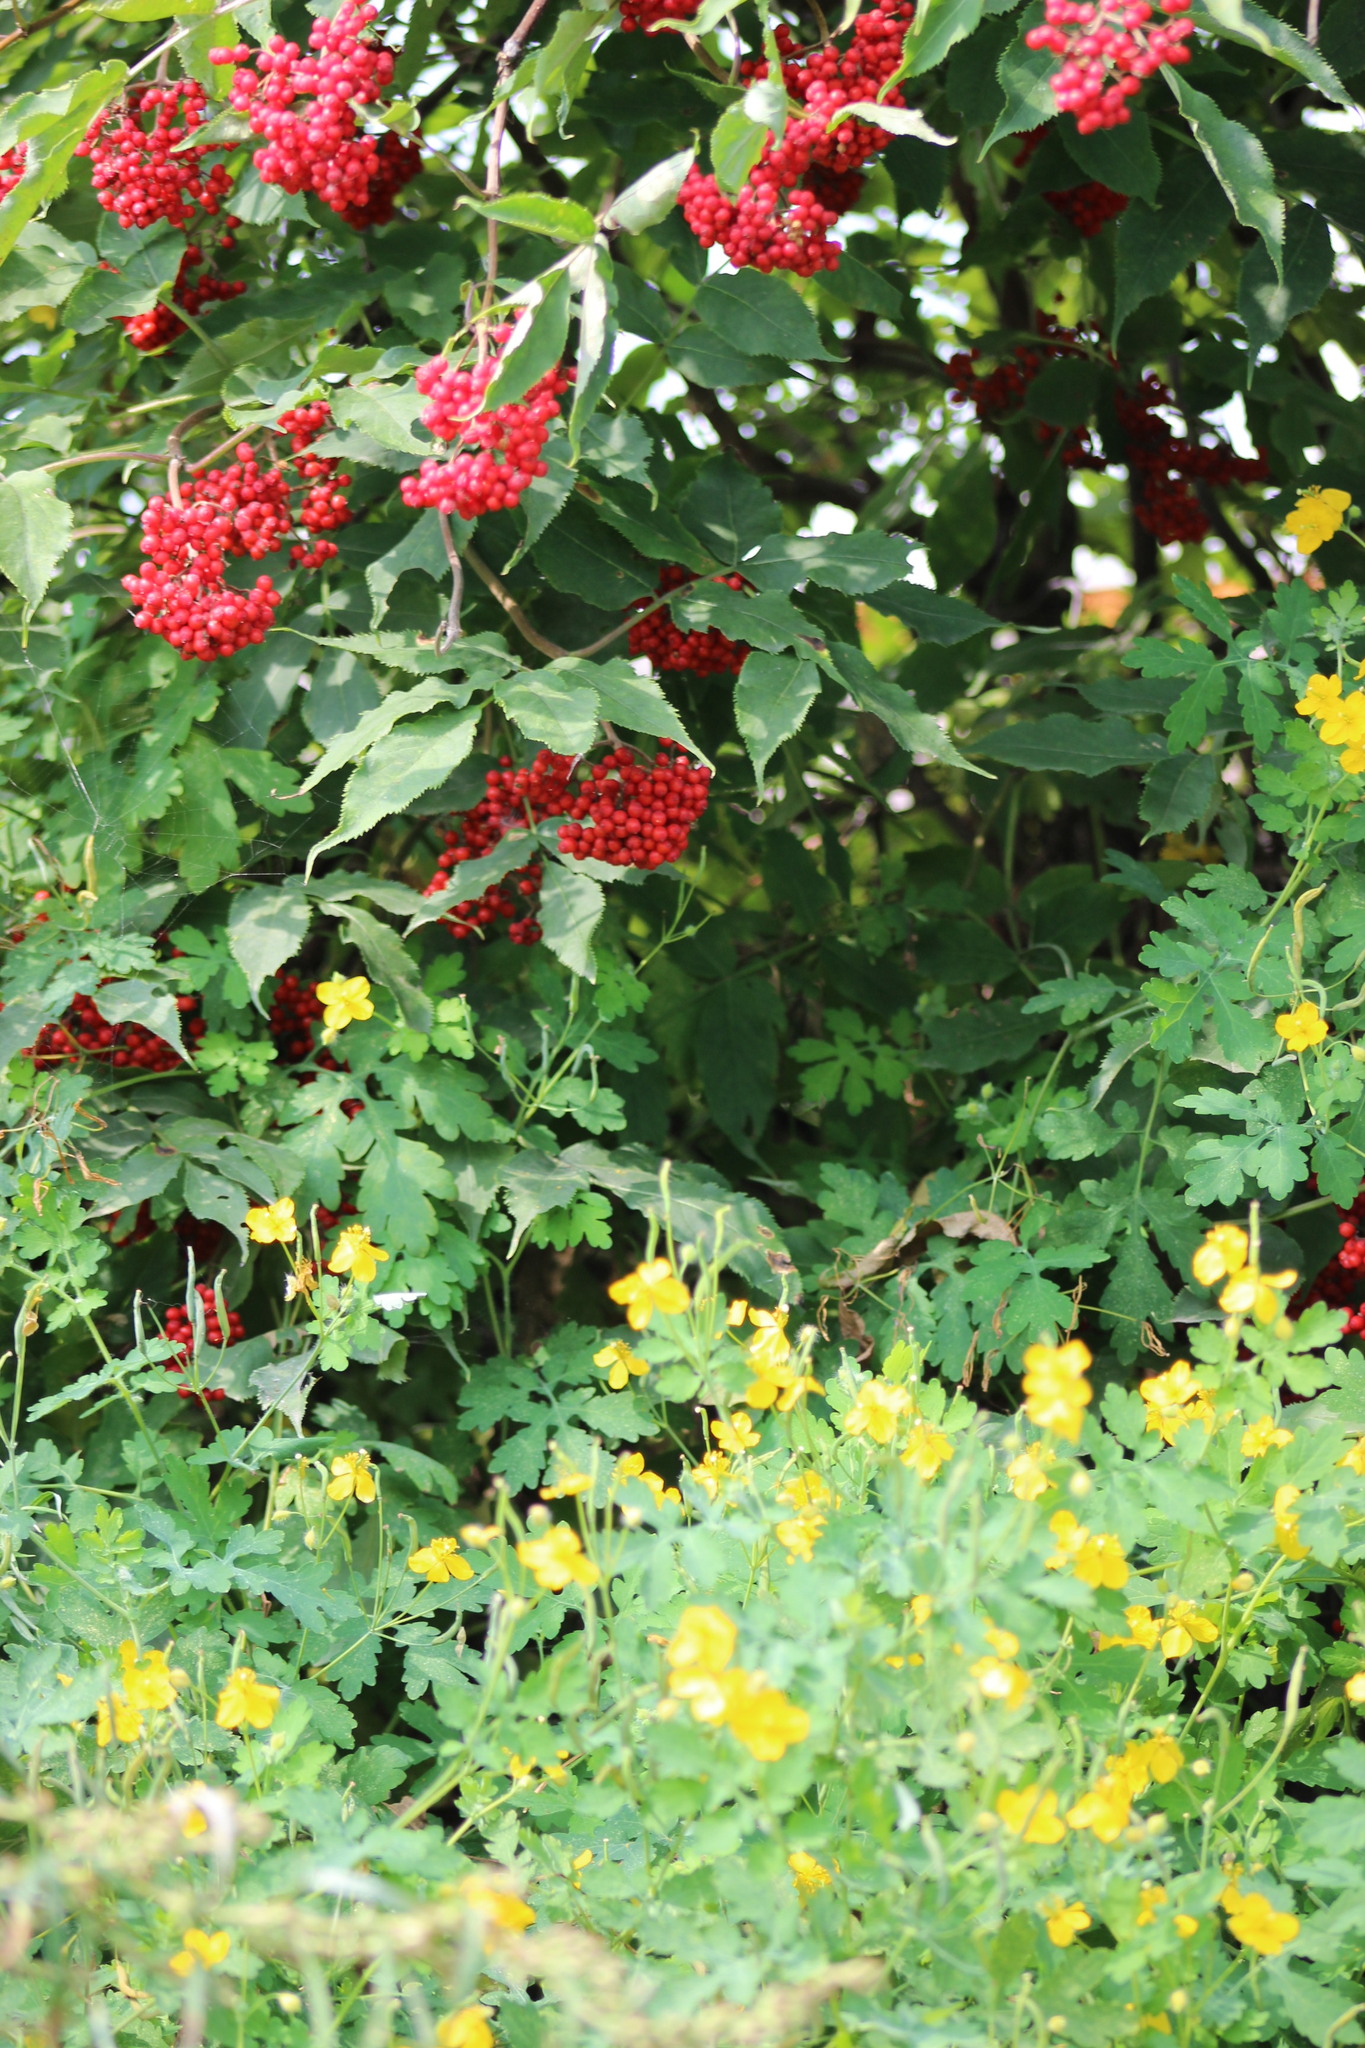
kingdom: Plantae
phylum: Tracheophyta
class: Magnoliopsida
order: Dipsacales
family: Viburnaceae
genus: Sambucus
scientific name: Sambucus racemosa
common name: Red-berried elder
